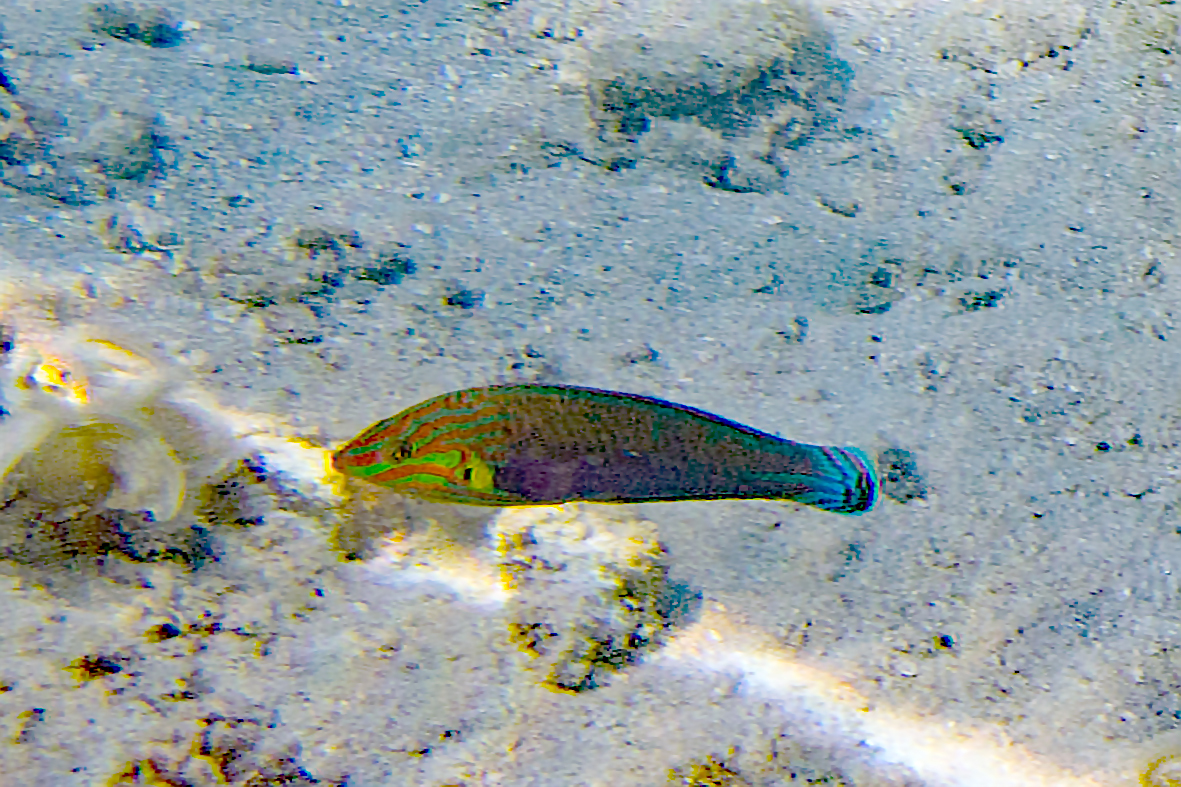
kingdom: Animalia
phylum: Chordata
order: Perciformes
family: Labridae
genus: Halichoeres
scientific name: Halichoeres melanurus
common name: Hoeven's wrasse
